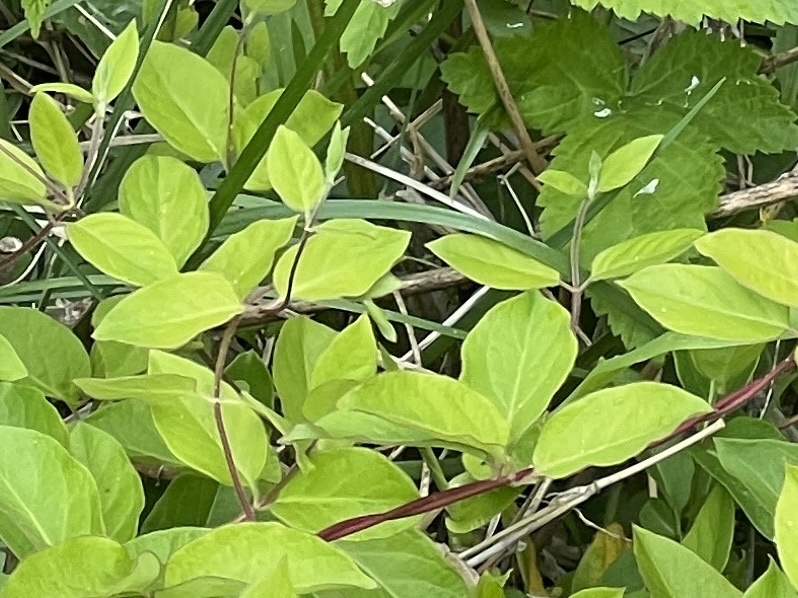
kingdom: Plantae
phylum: Tracheophyta
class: Magnoliopsida
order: Dipsacales
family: Caprifoliaceae
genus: Lonicera
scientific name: Lonicera japonica
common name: Japanese honeysuckle
